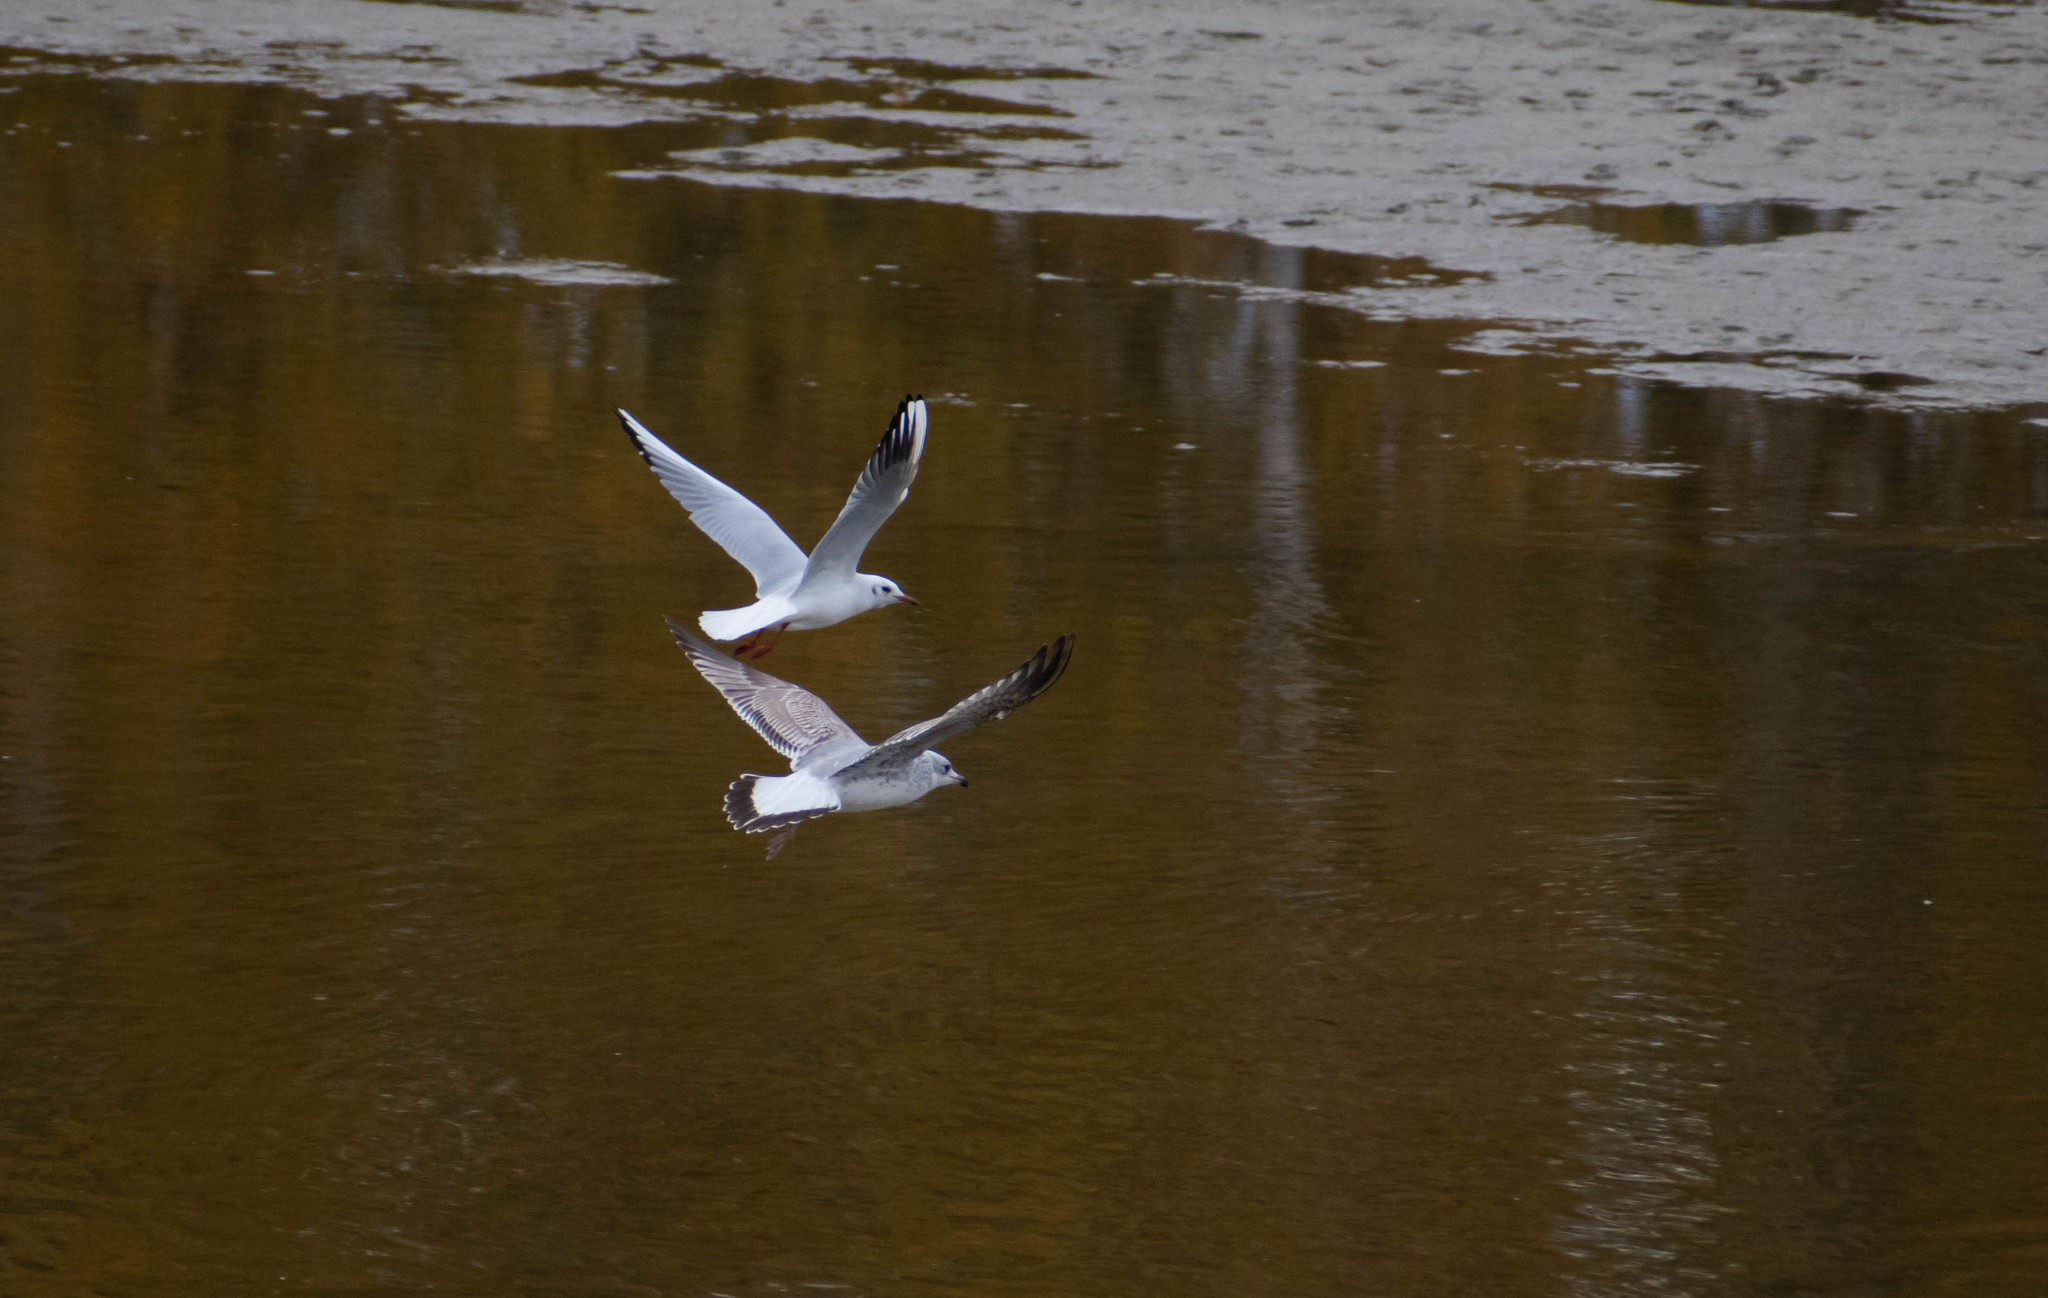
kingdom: Animalia
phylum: Chordata
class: Aves
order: Charadriiformes
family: Laridae
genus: Larus
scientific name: Larus canus
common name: Mew gull
